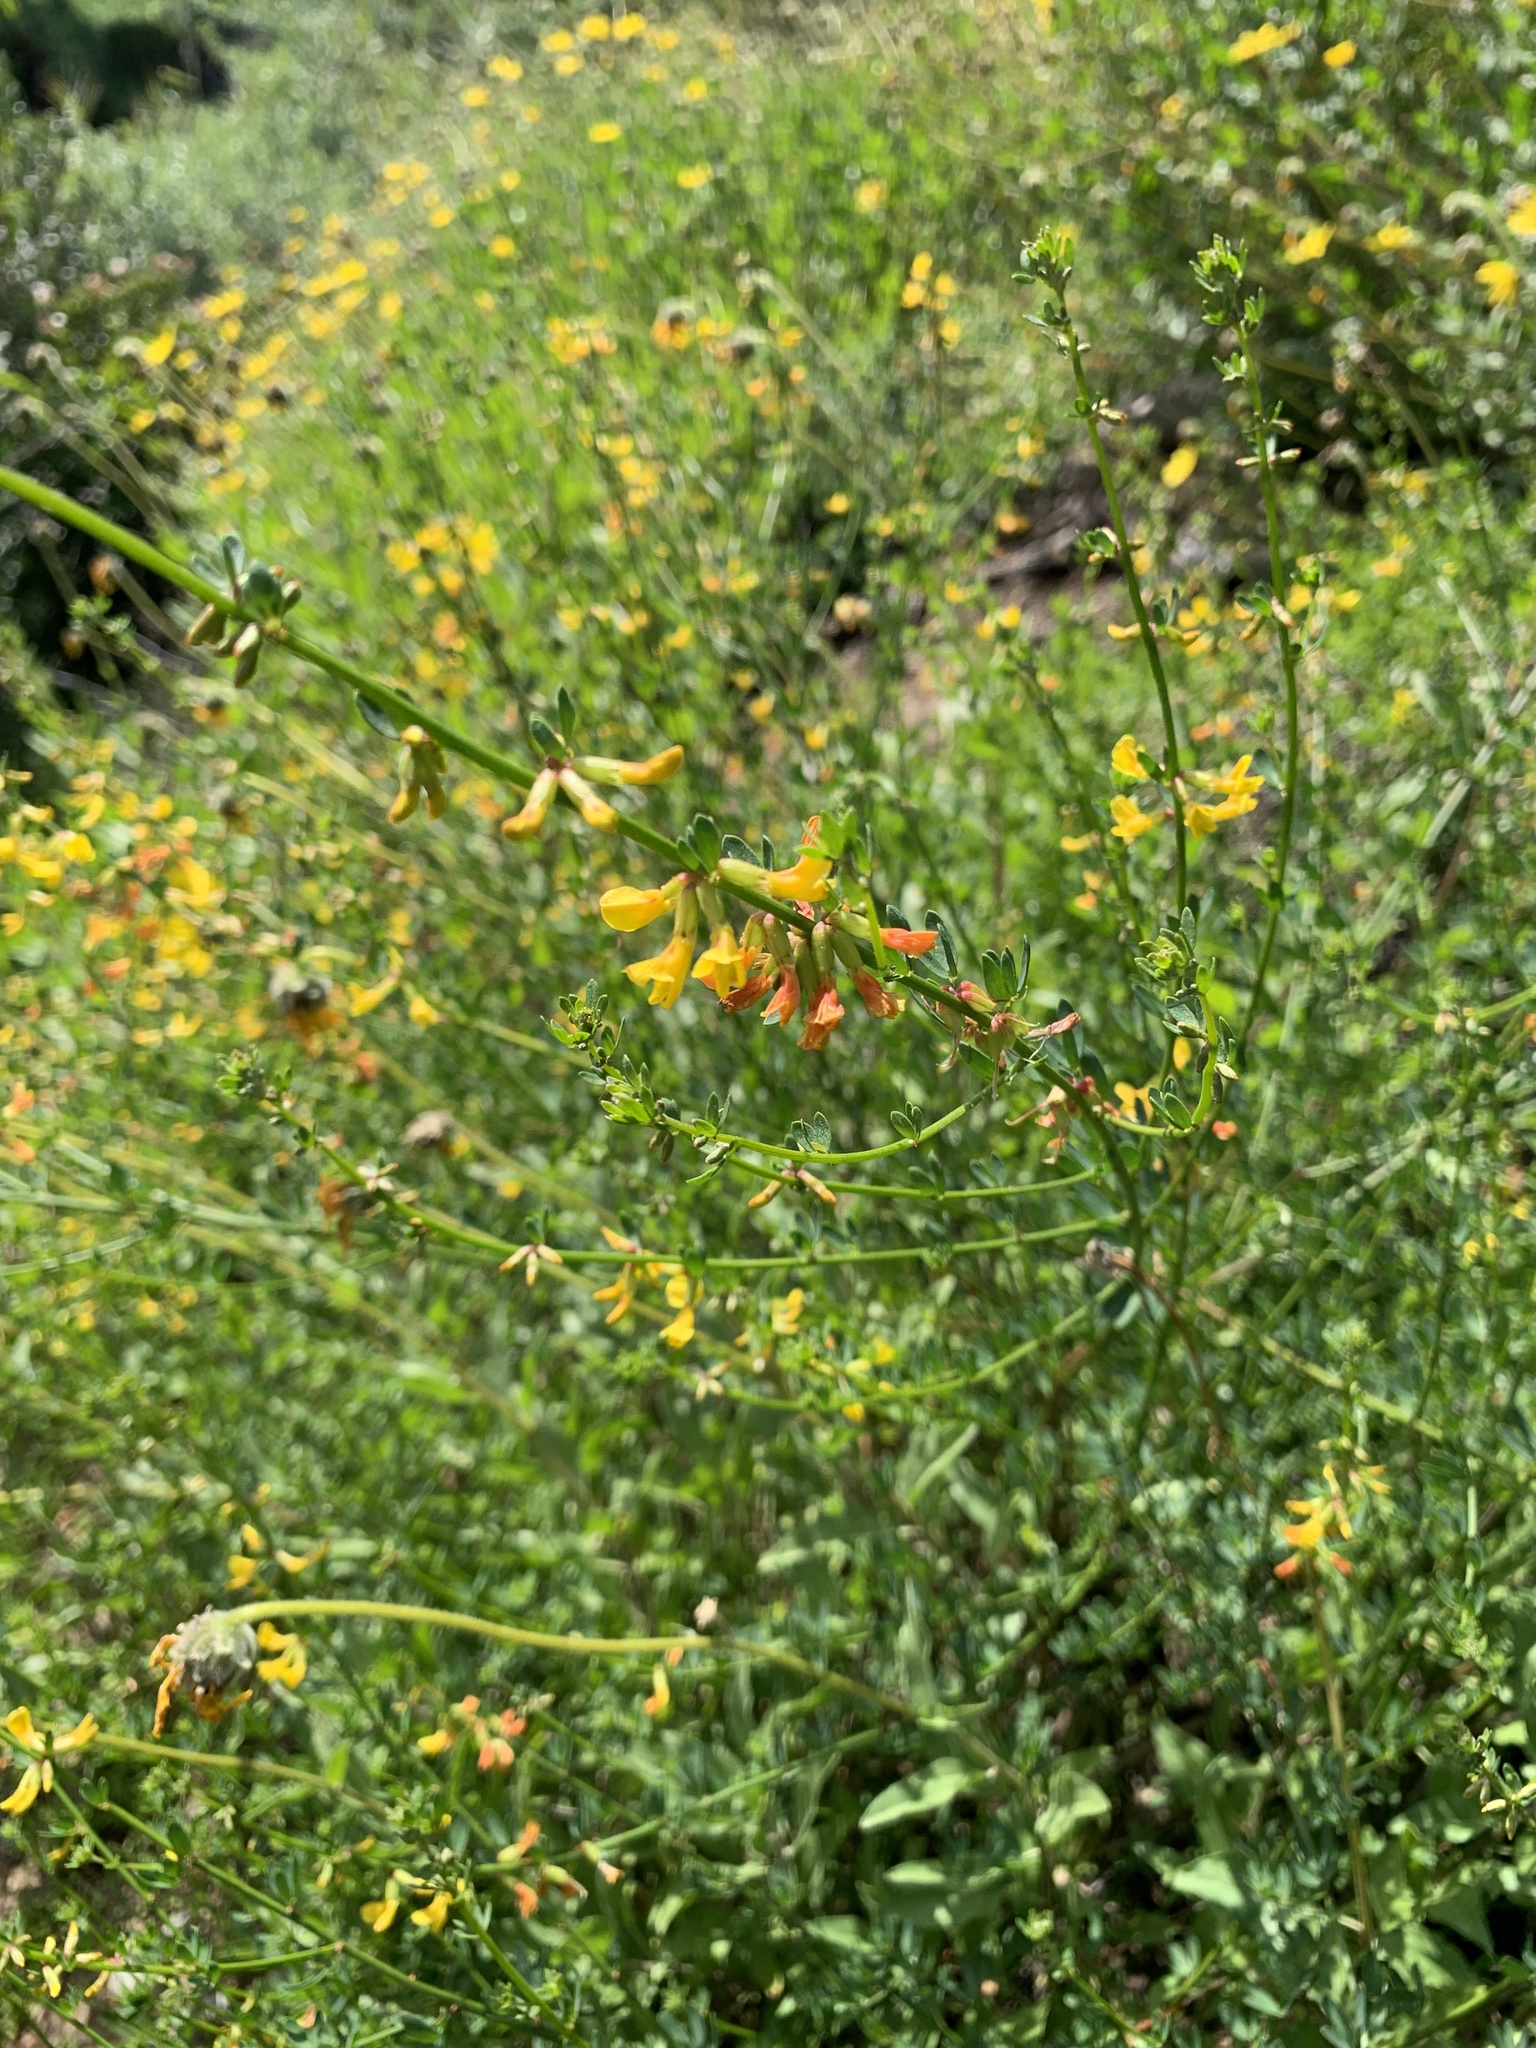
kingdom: Plantae
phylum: Tracheophyta
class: Magnoliopsida
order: Fabales
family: Fabaceae
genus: Acmispon
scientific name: Acmispon glaber
